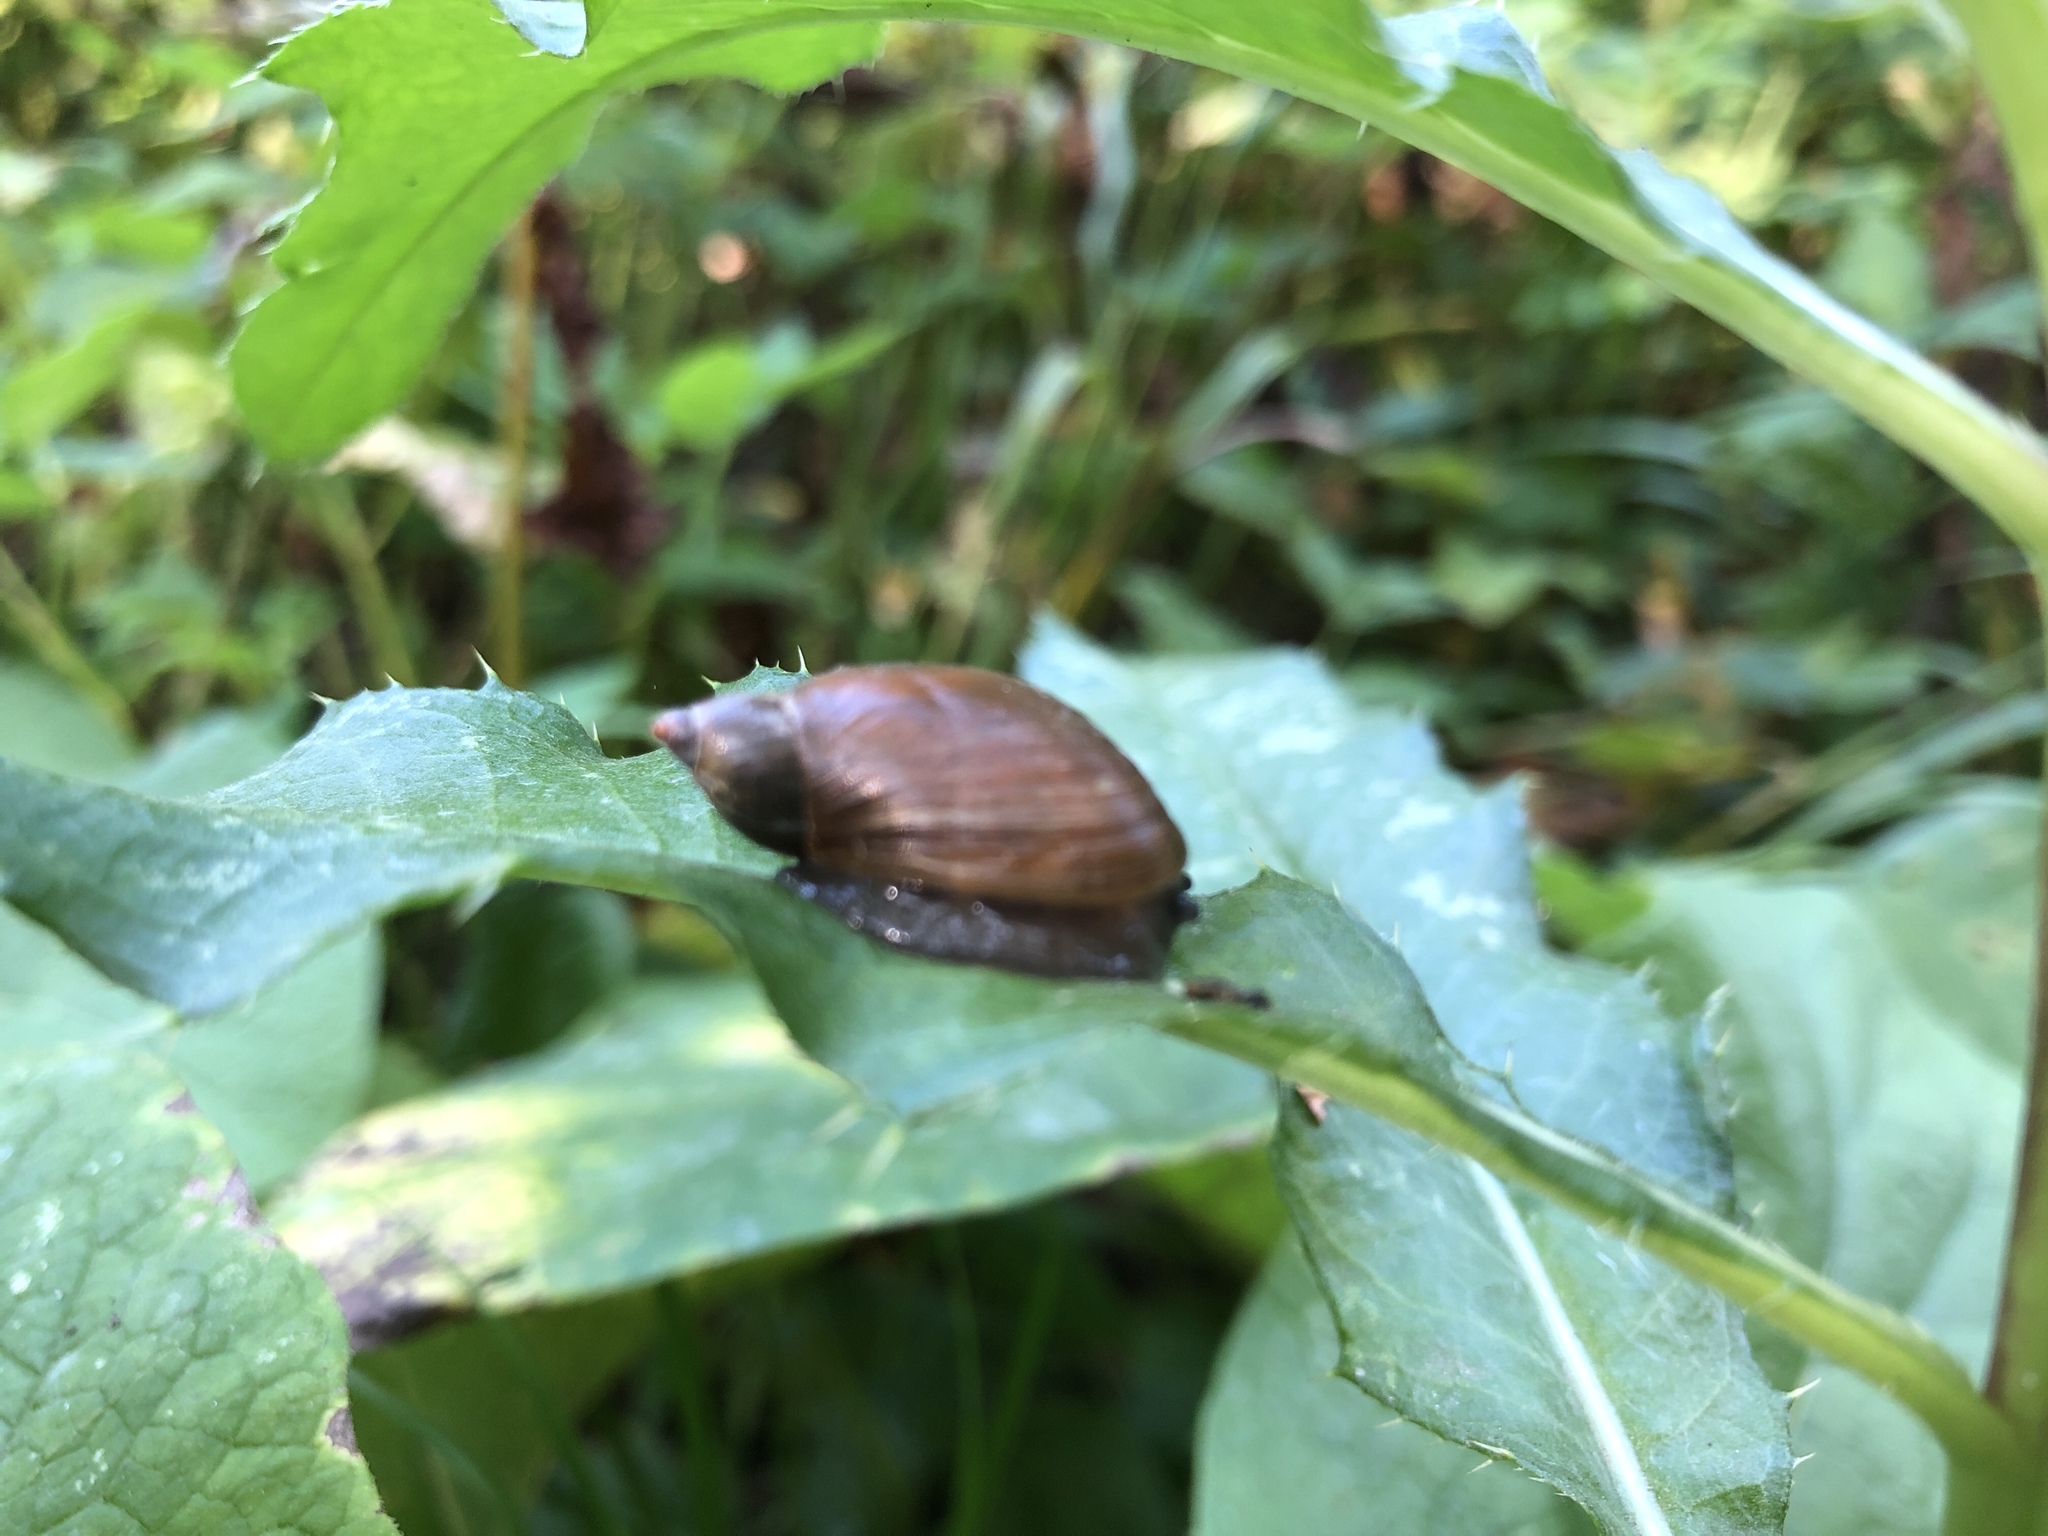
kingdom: Animalia
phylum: Mollusca
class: Gastropoda
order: Stylommatophora
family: Succineidae
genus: Succinea
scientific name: Succinea putris
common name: European ambersnail
